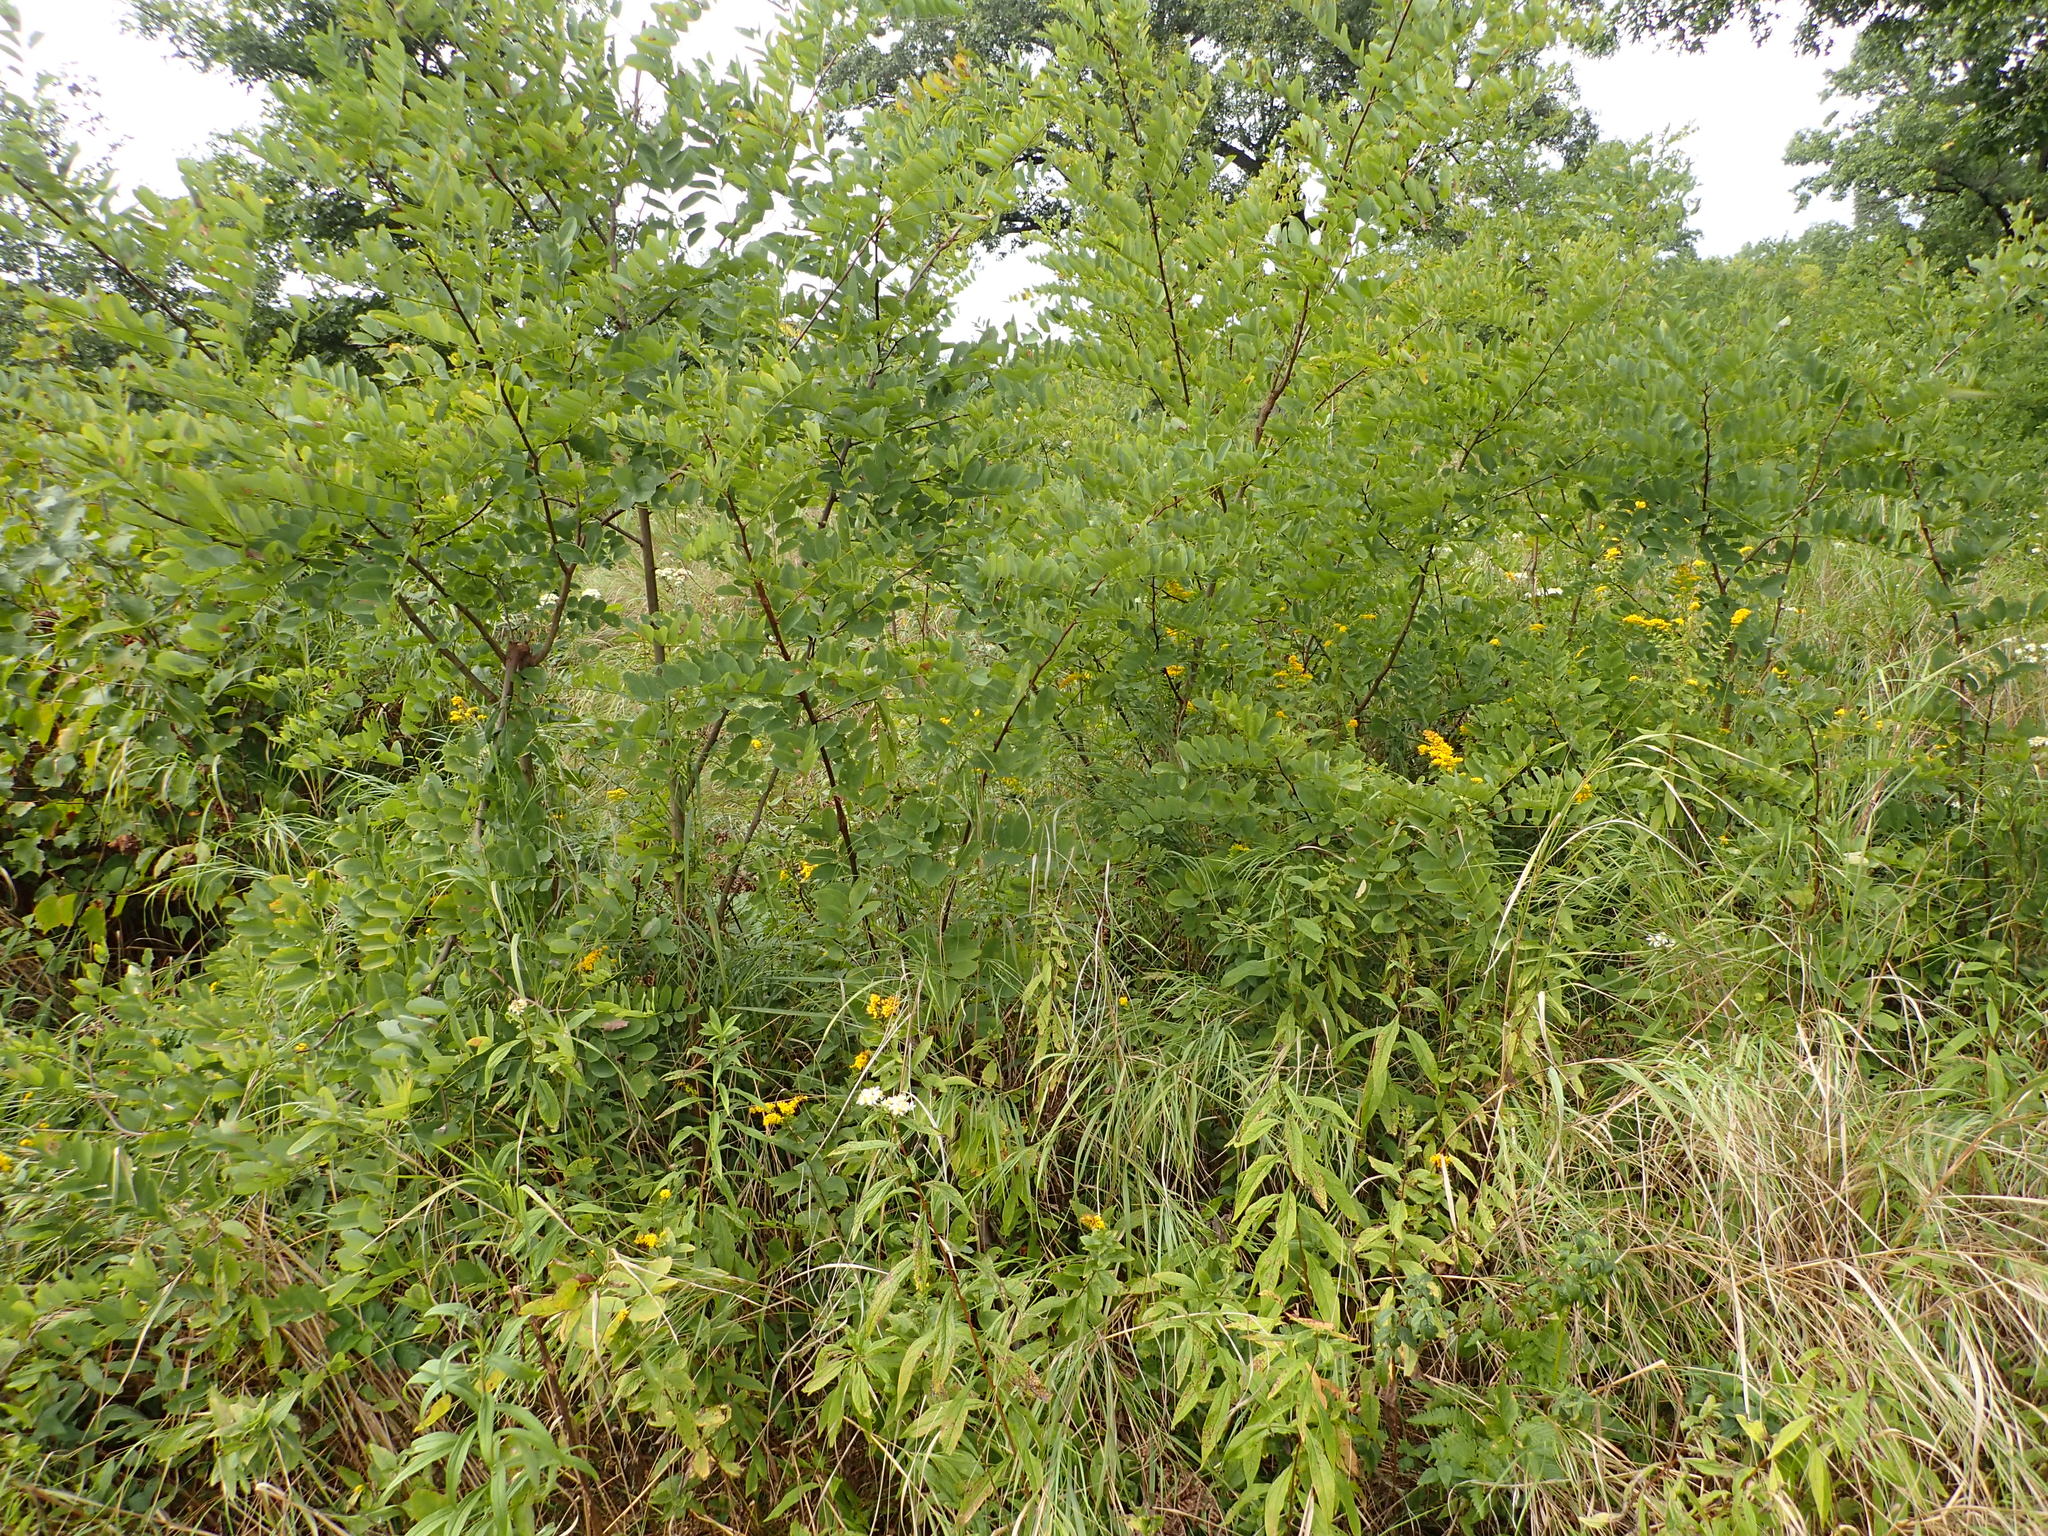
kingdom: Plantae
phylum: Tracheophyta
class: Magnoliopsida
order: Fabales
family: Fabaceae
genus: Robinia
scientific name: Robinia pseudoacacia
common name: Black locust
